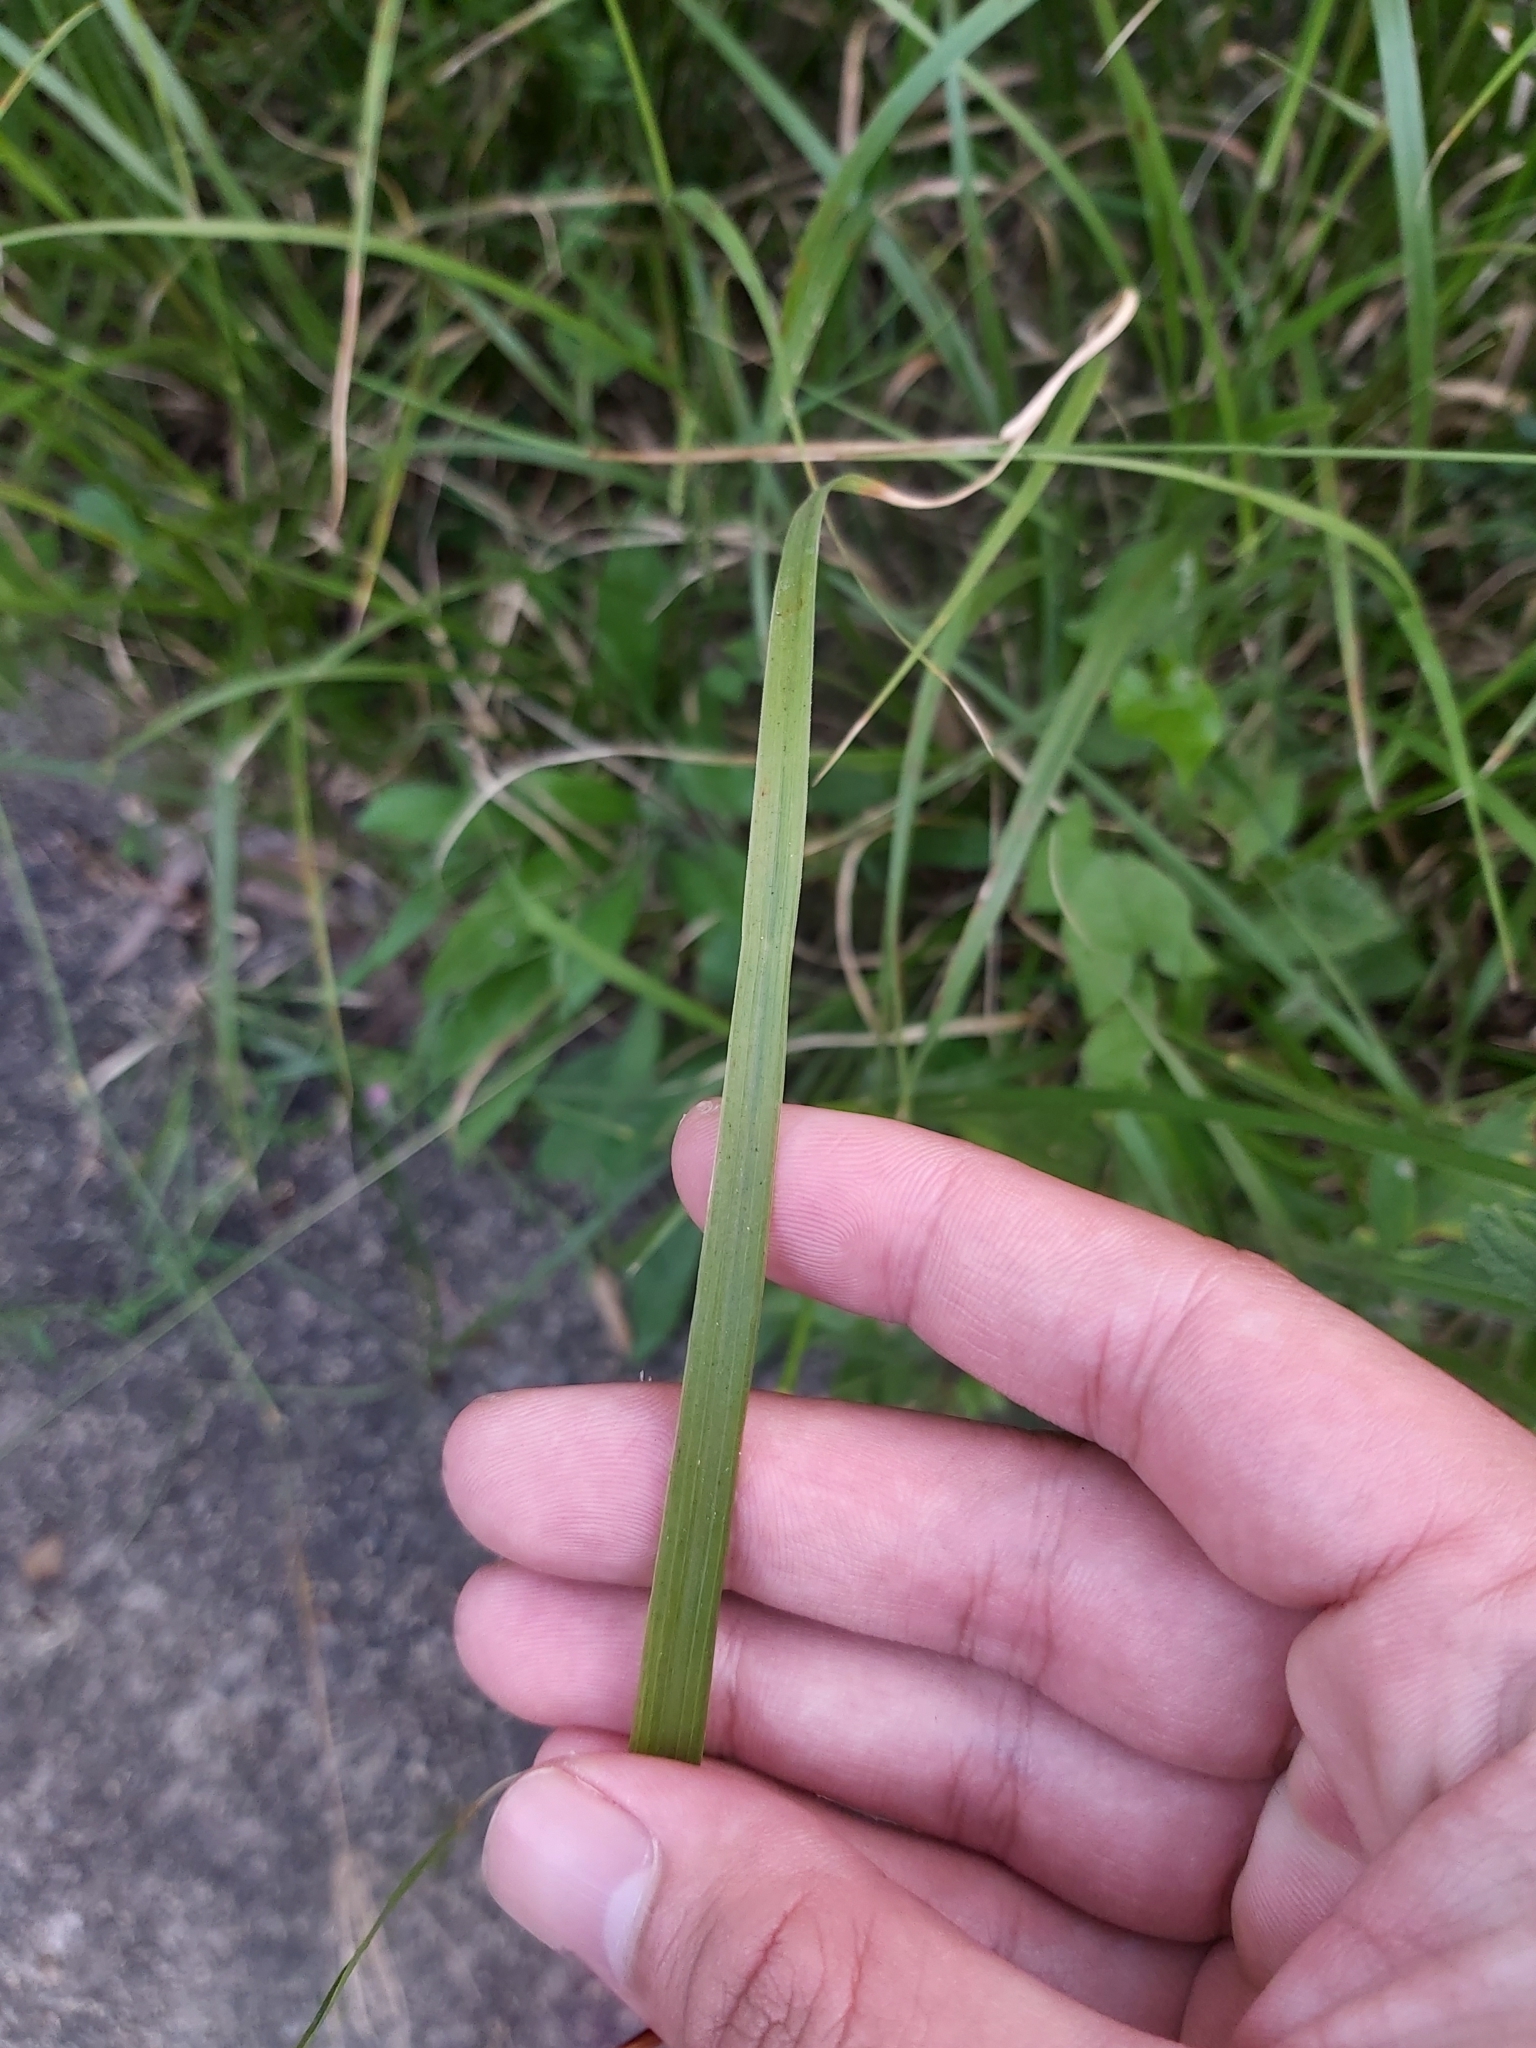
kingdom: Plantae
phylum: Tracheophyta
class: Liliopsida
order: Poales
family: Poaceae
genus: Chloris
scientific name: Chloris gayana
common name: Rhodes grass
